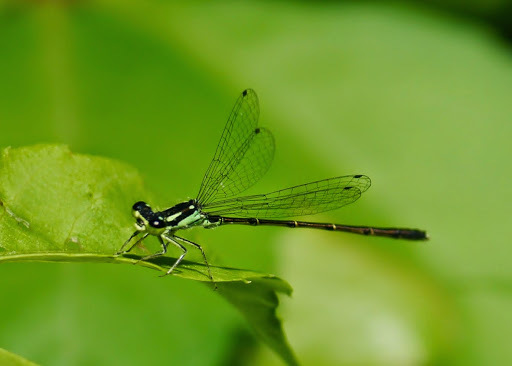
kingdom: Animalia
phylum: Arthropoda
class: Insecta
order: Odonata
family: Coenagrionidae
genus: Ischnura
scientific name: Ischnura posita
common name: Fragile forktail
